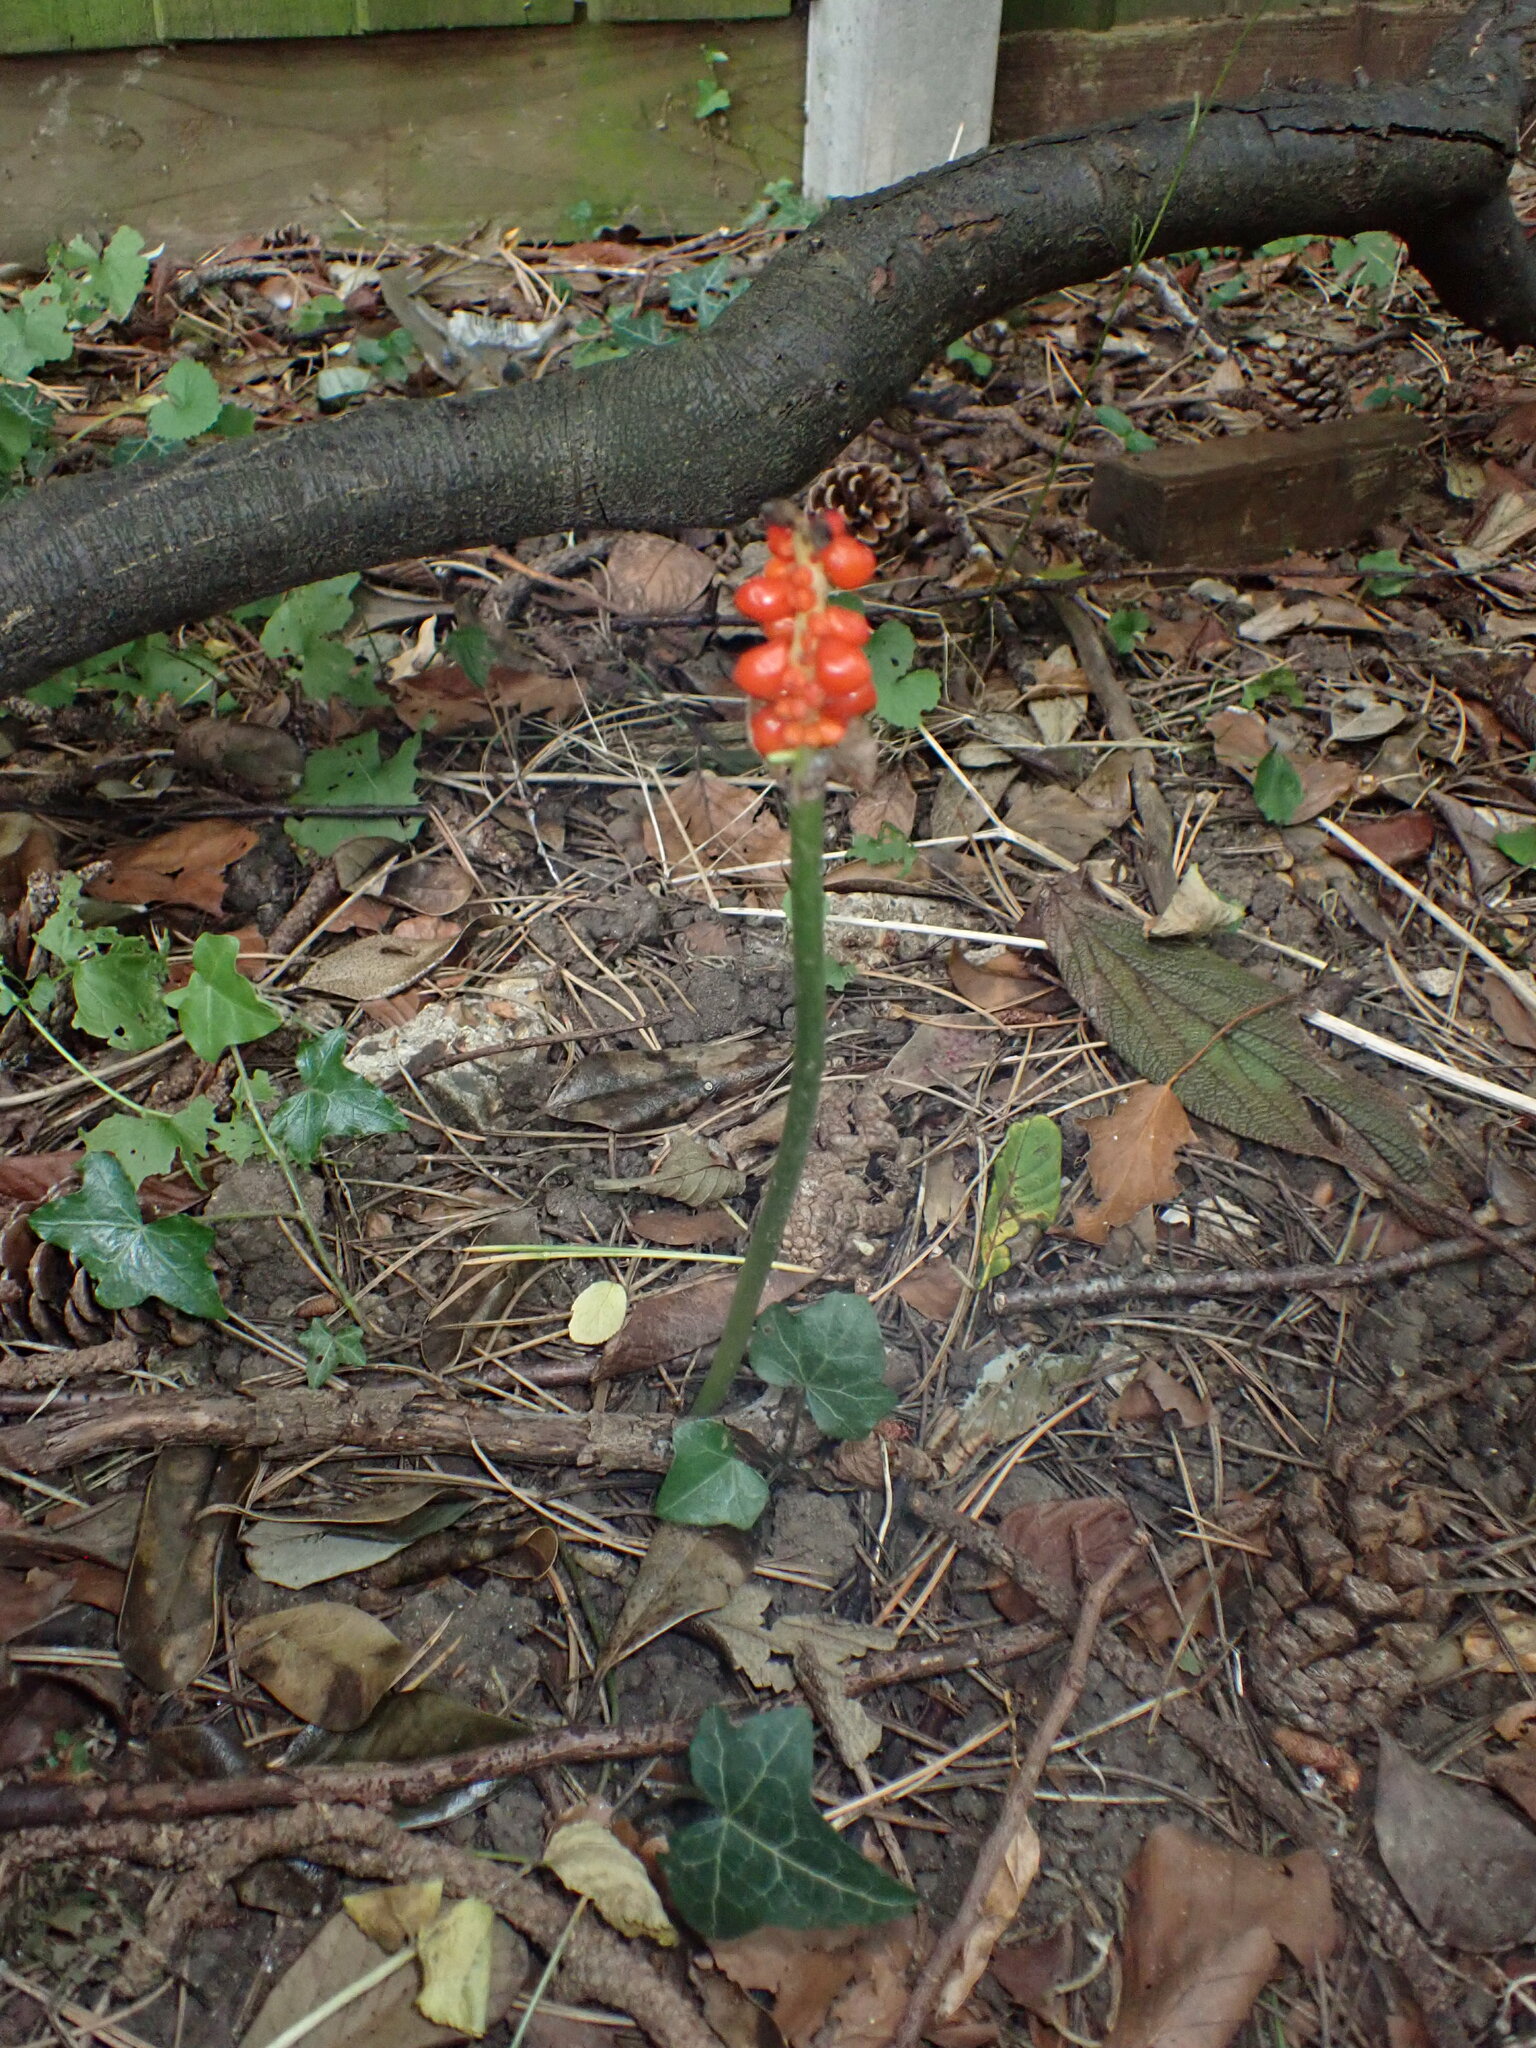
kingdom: Plantae
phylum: Tracheophyta
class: Liliopsida
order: Alismatales
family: Araceae
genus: Arum
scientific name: Arum maculatum
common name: Lords-and-ladies
